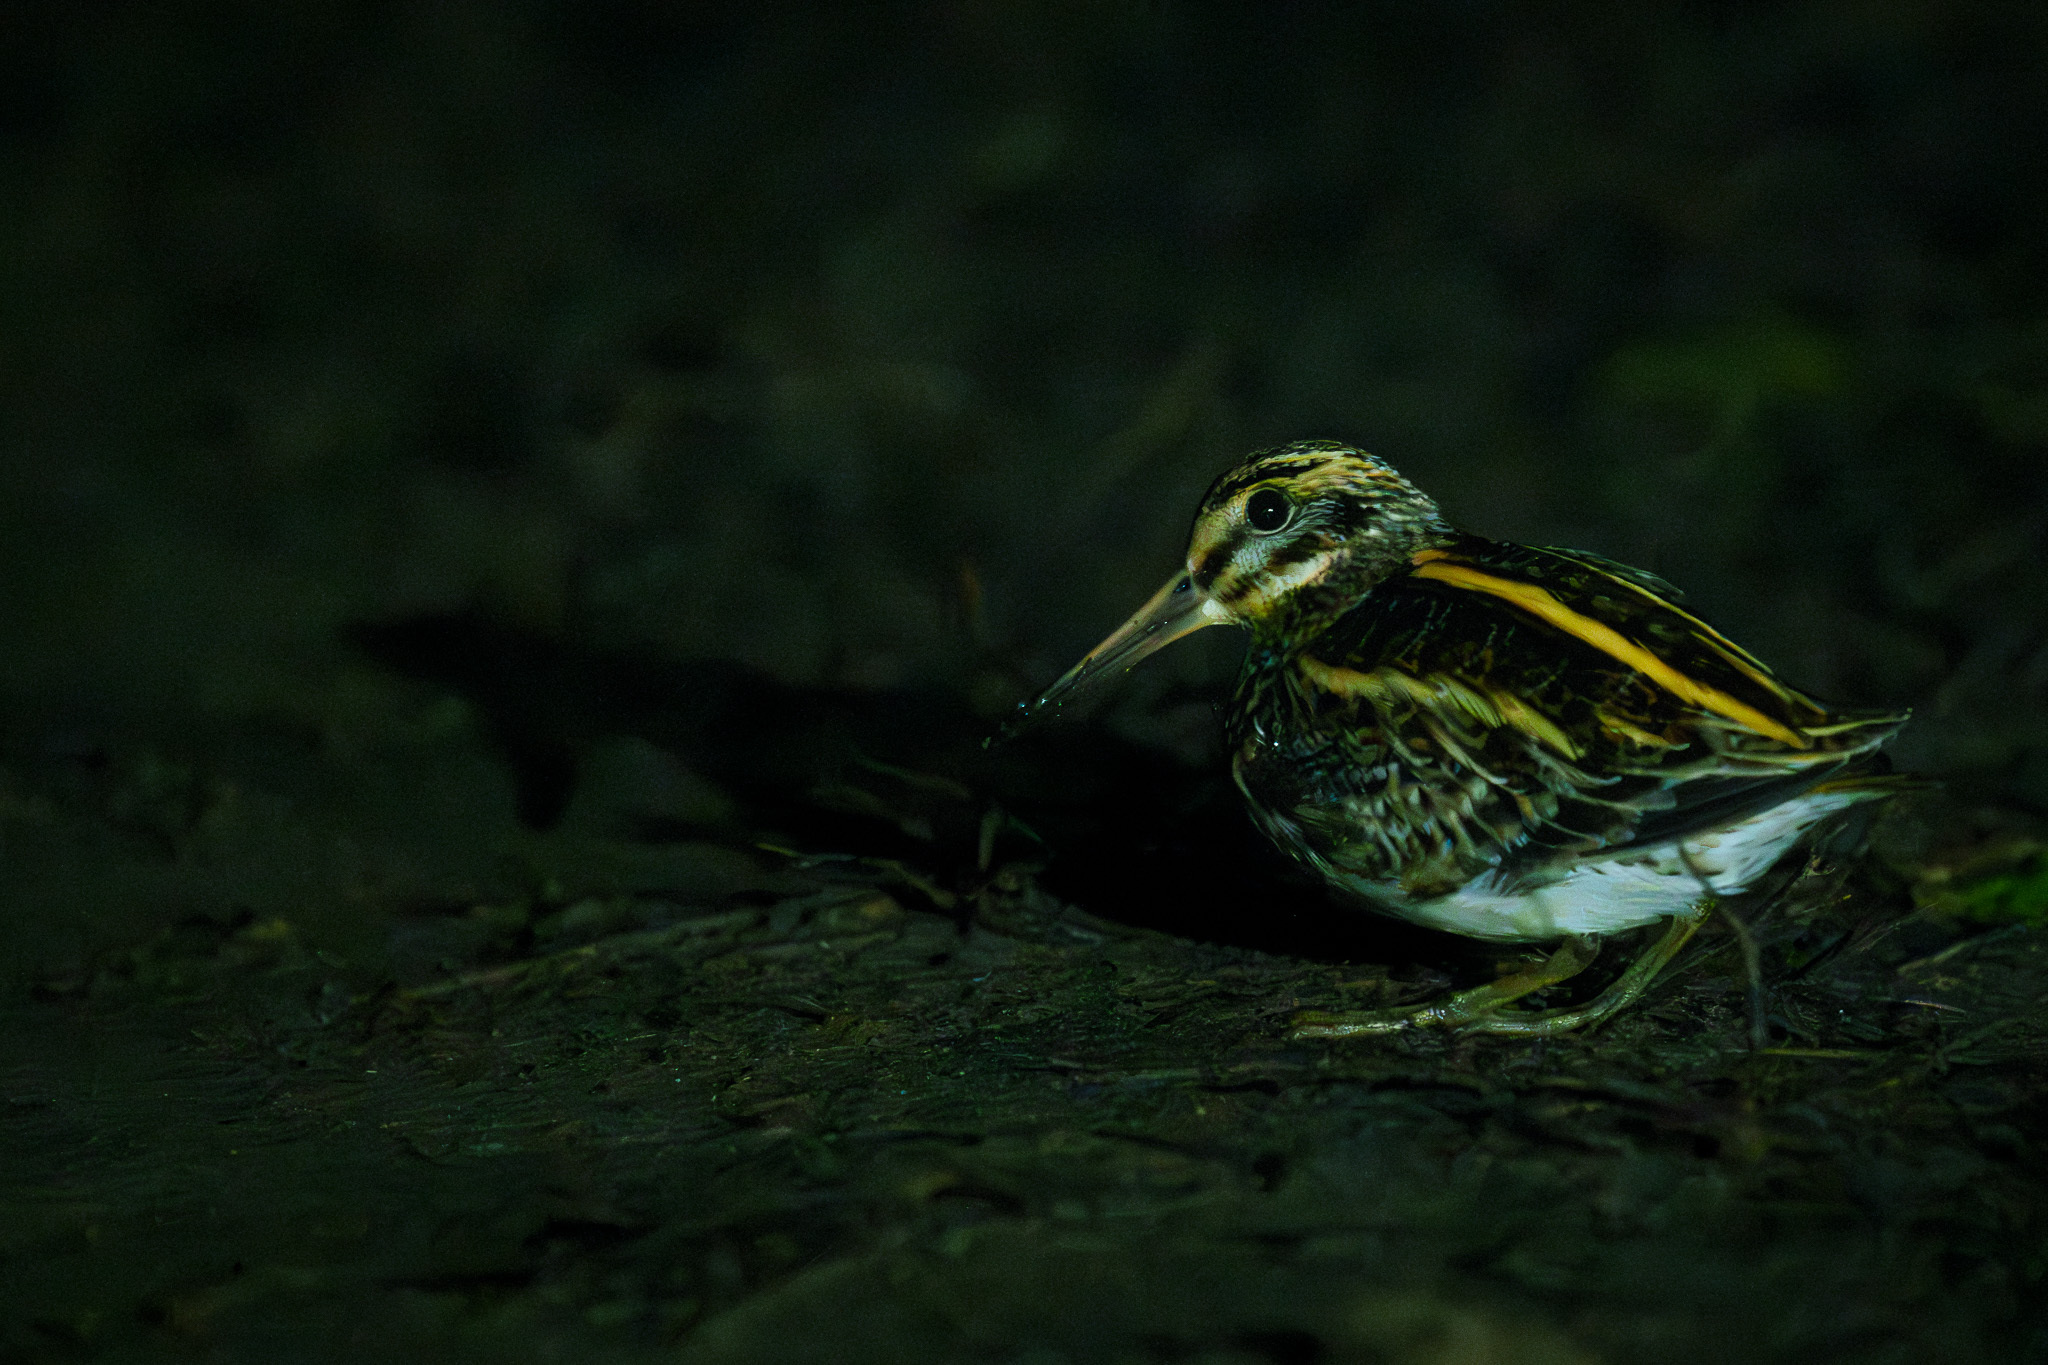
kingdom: Animalia
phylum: Chordata
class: Aves
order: Charadriiformes
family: Scolopacidae
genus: Lymnocryptes
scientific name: Lymnocryptes minimus
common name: Jack snipe
